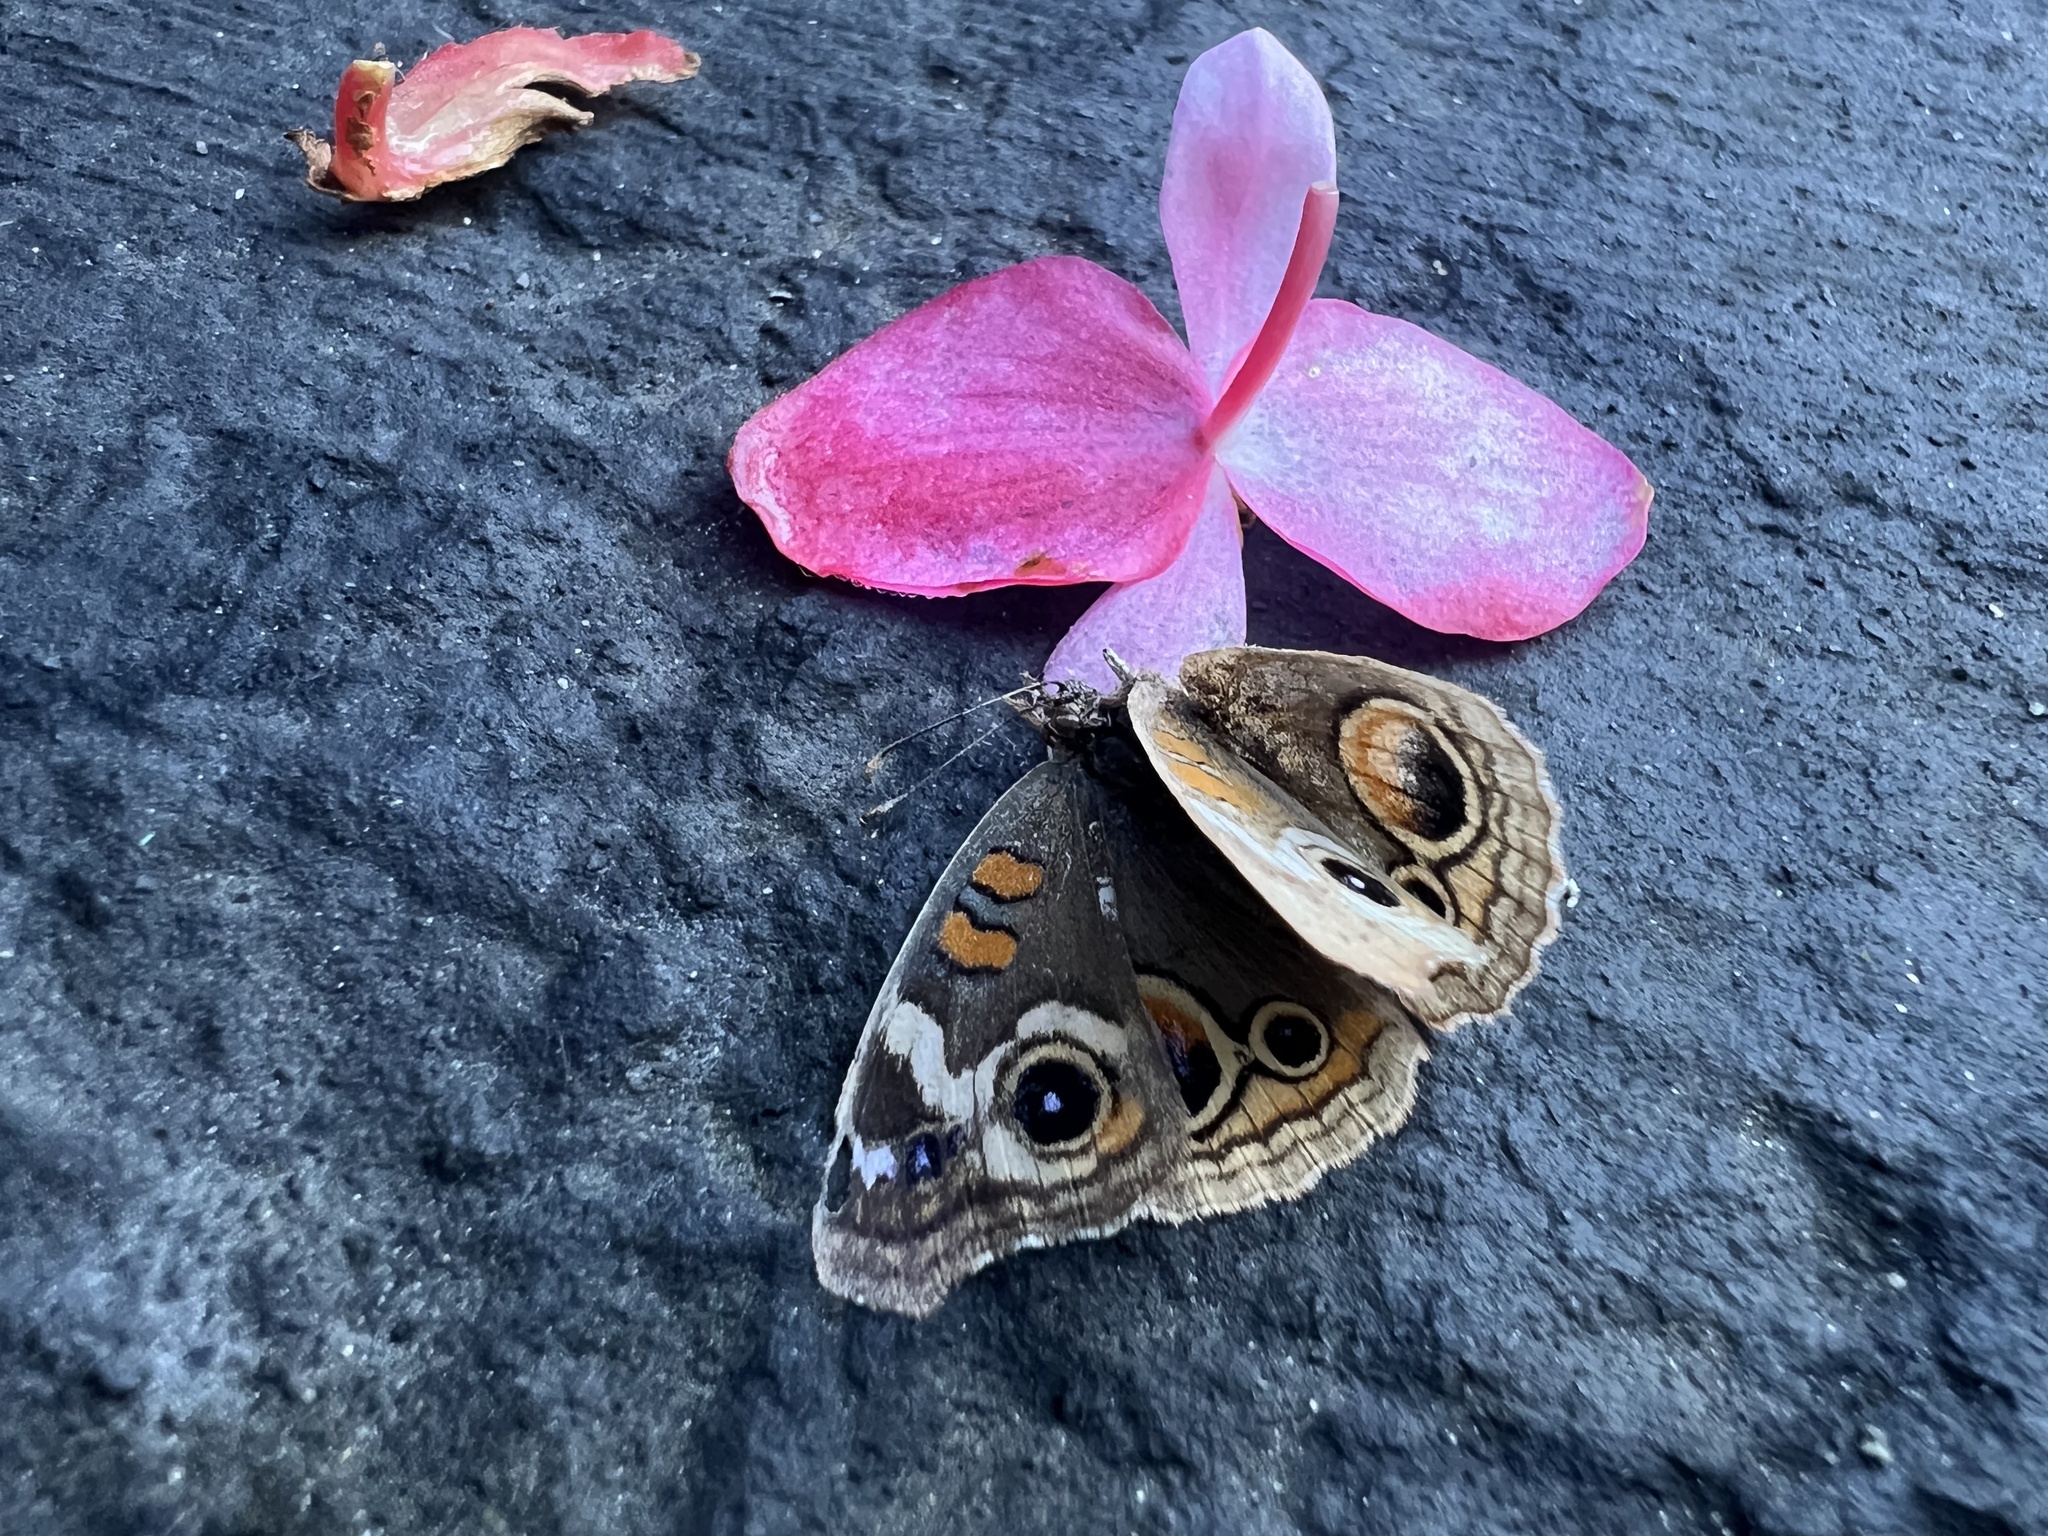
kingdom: Animalia
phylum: Arthropoda
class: Insecta
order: Lepidoptera
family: Nymphalidae
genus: Junonia
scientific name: Junonia grisea
